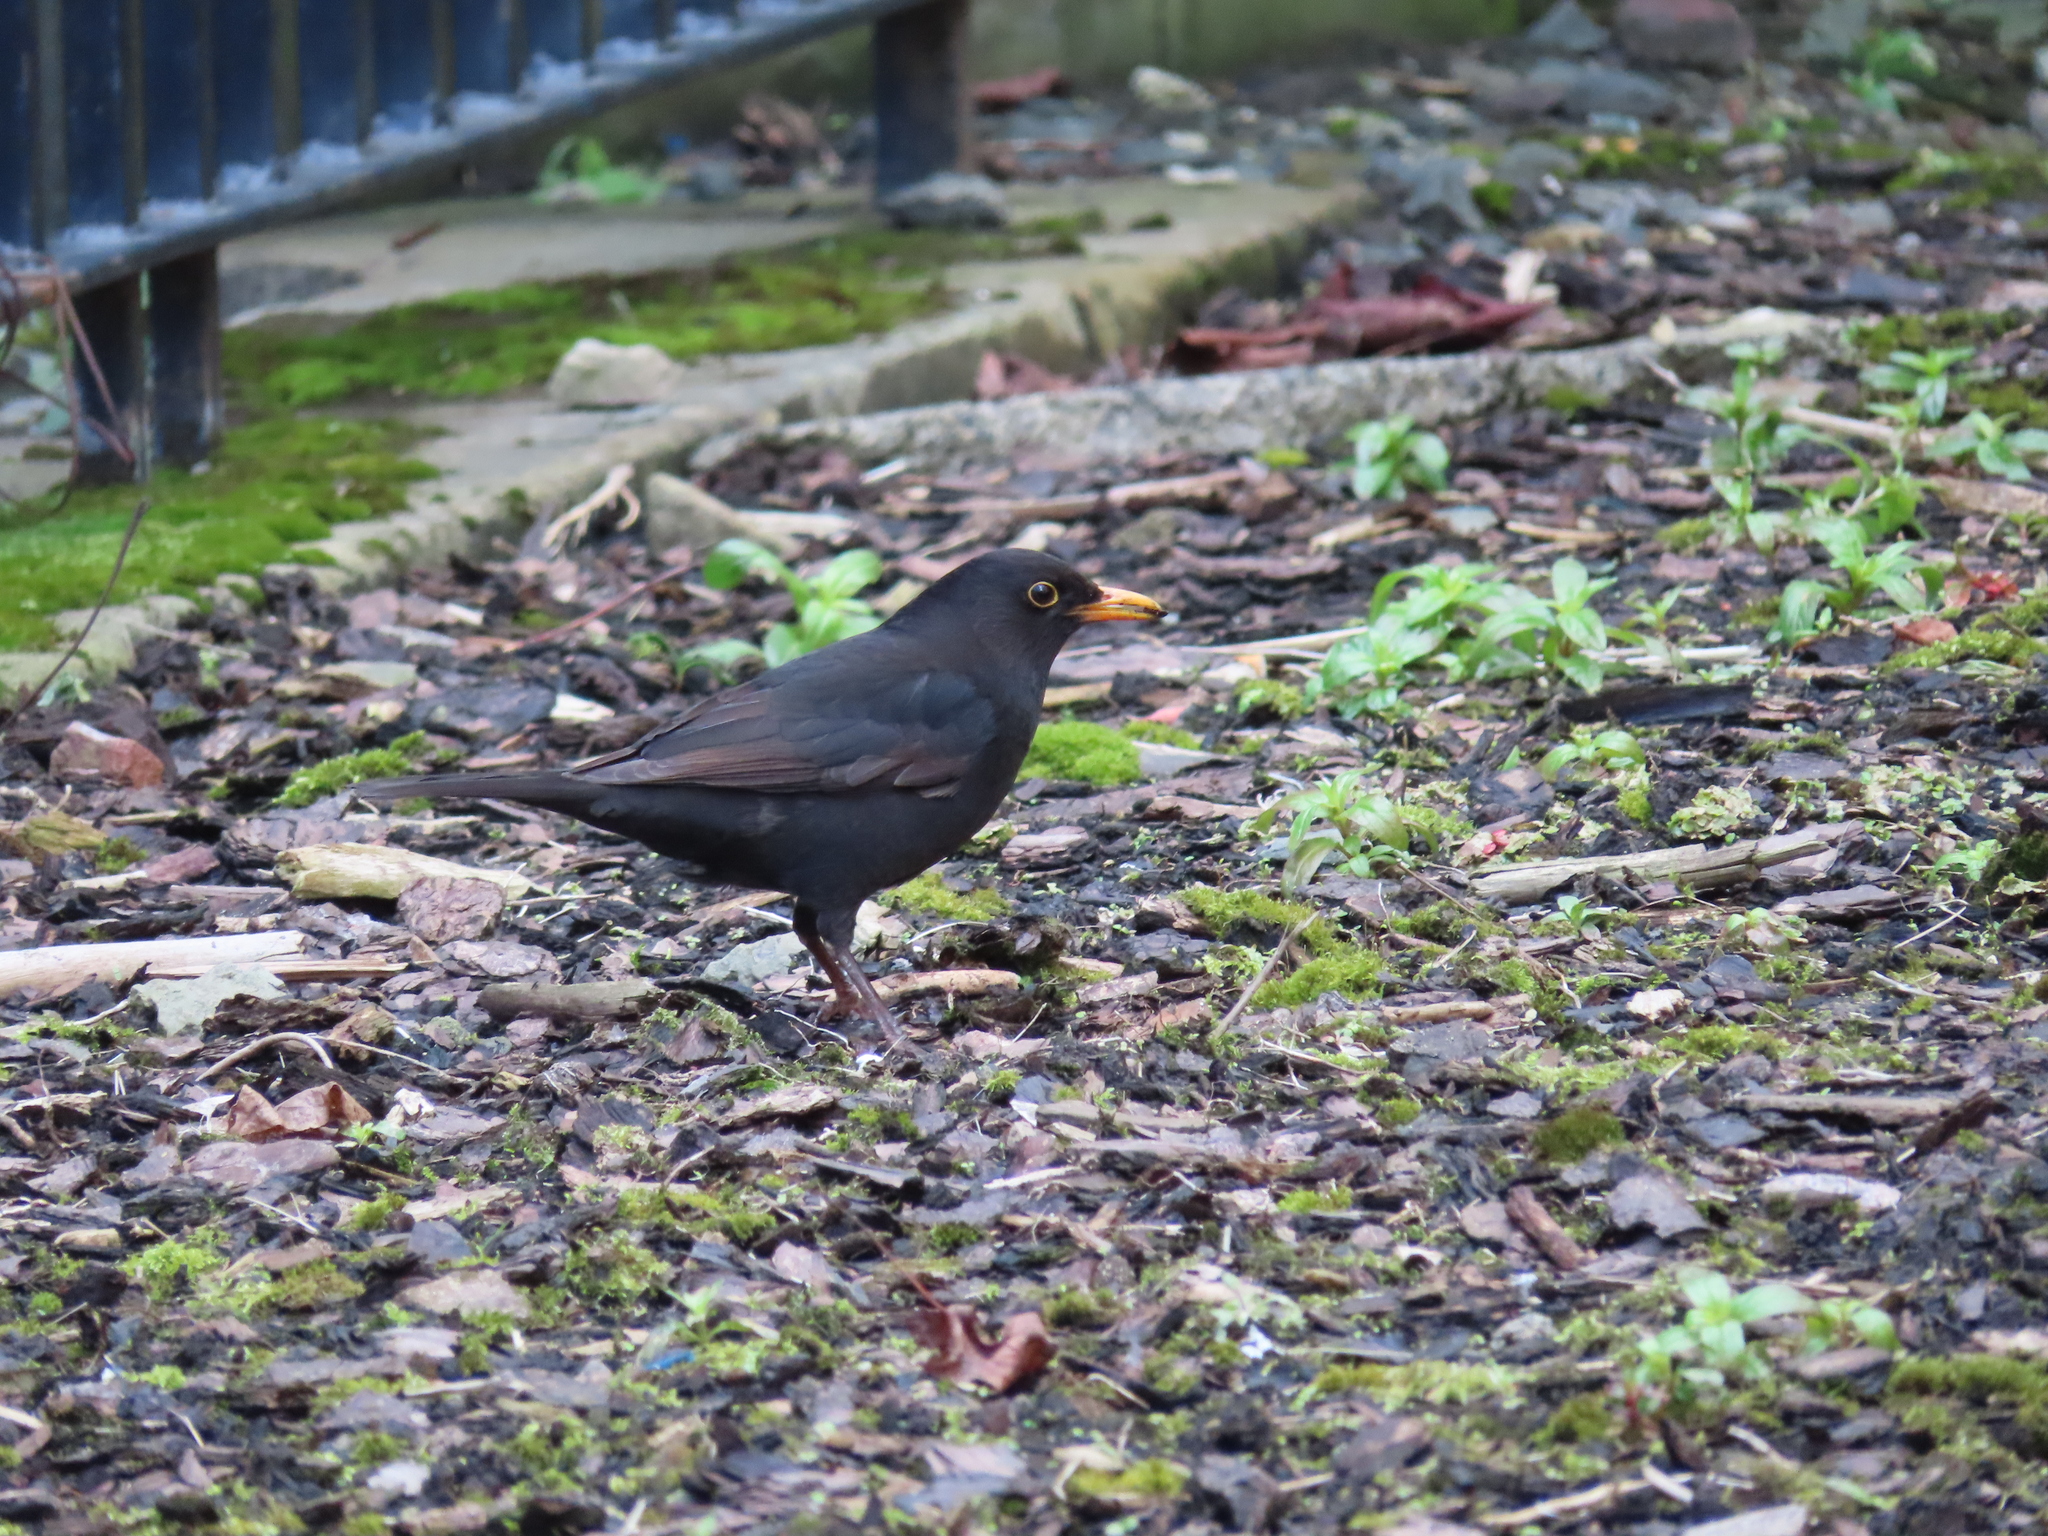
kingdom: Animalia
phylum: Chordata
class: Aves
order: Passeriformes
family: Turdidae
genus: Turdus
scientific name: Turdus merula
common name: Common blackbird
